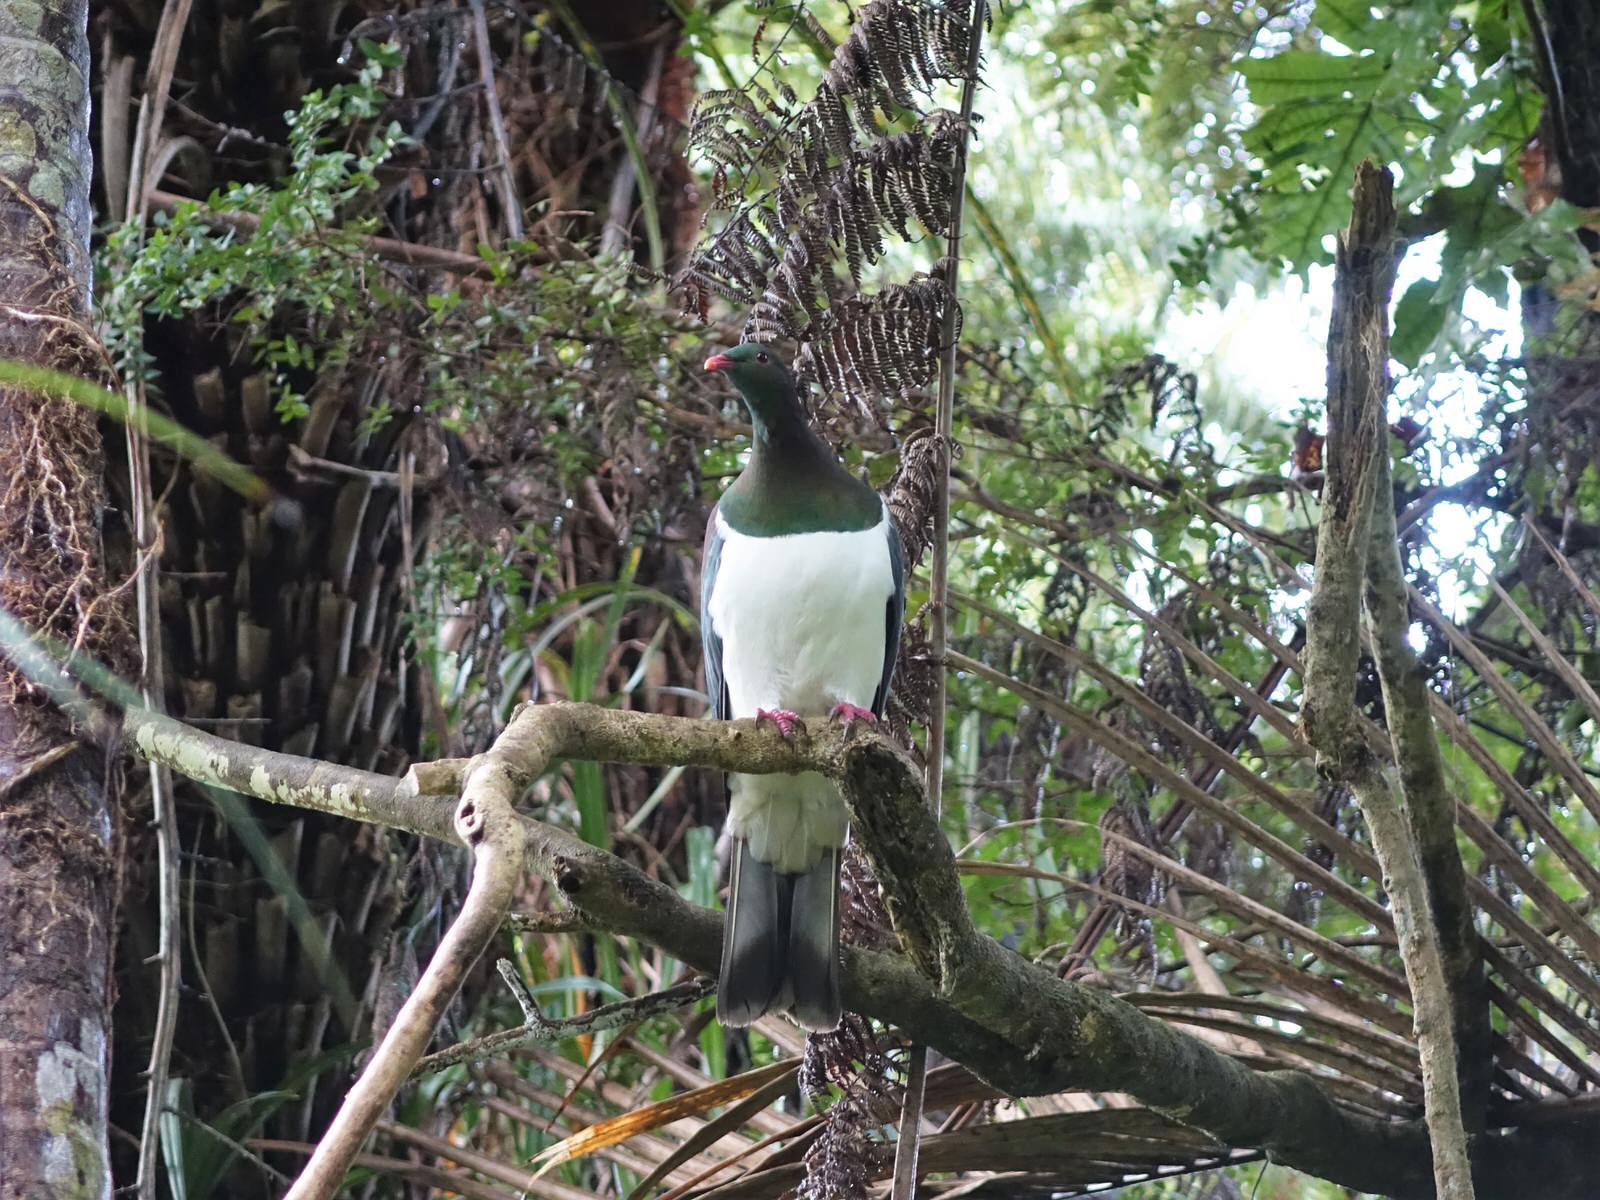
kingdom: Animalia
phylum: Chordata
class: Aves
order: Columbiformes
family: Columbidae
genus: Hemiphaga
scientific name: Hemiphaga novaeseelandiae
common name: New zealand pigeon
